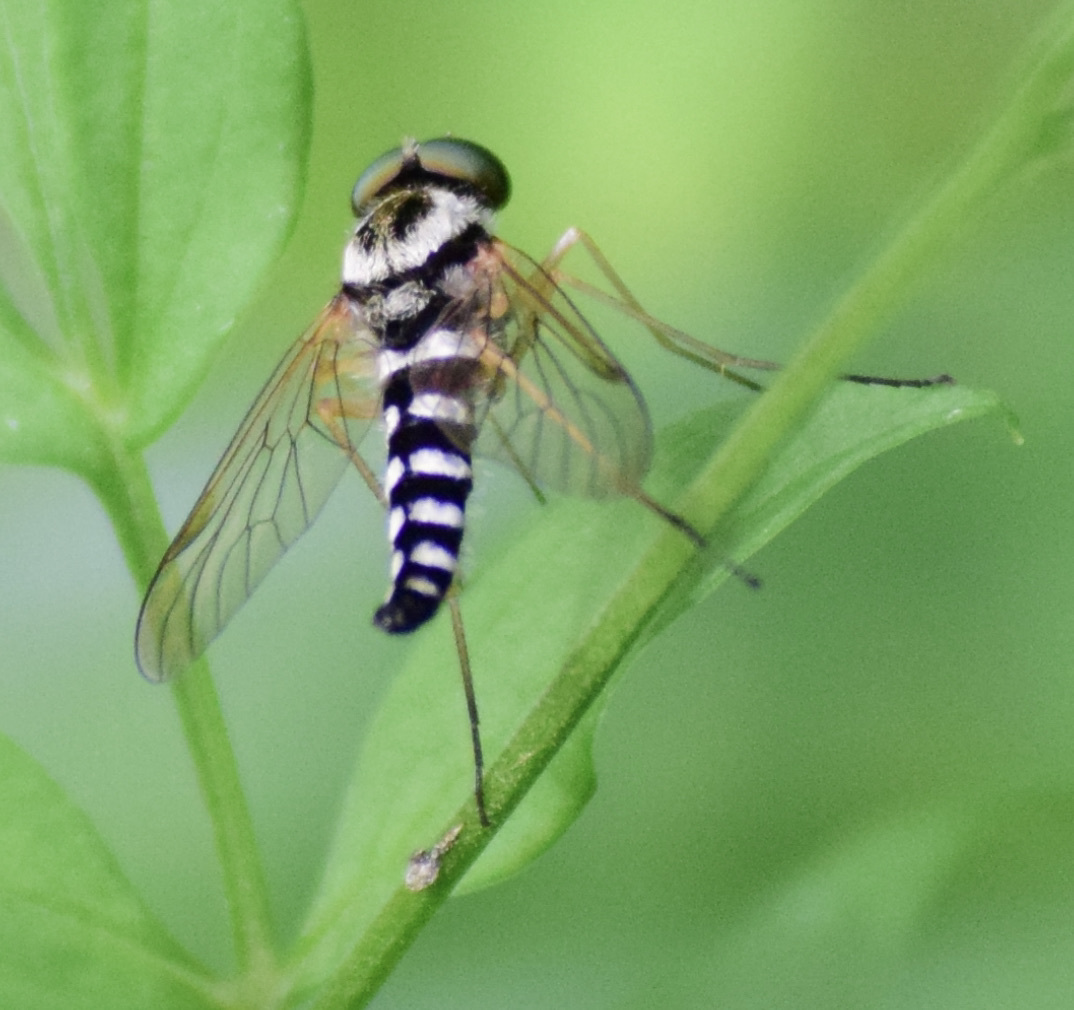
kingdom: Animalia
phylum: Arthropoda
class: Insecta
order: Diptera
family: Rhagionidae
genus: Chrysopilus
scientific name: Chrysopilus ornatus
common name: Ornate snipe fly
